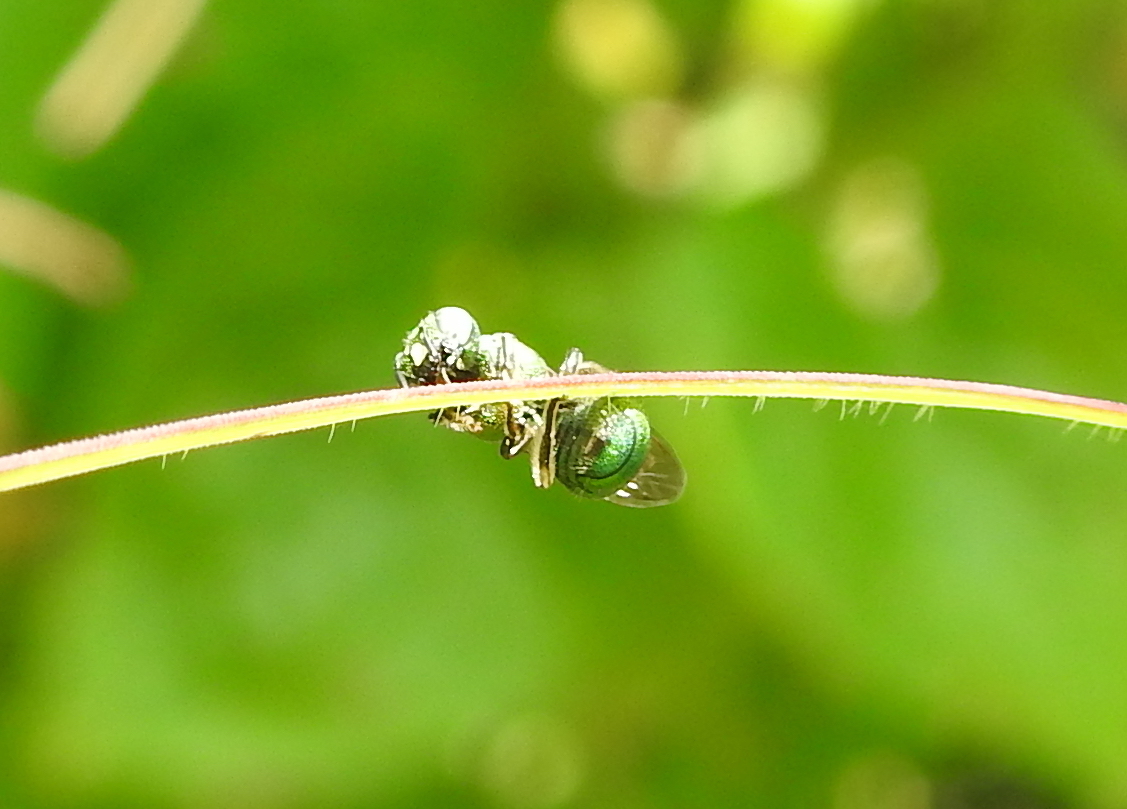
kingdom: Animalia
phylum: Arthropoda
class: Insecta
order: Hymenoptera
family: Apidae
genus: Ceratina
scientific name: Ceratina smaragdula
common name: Small carpenter bee
